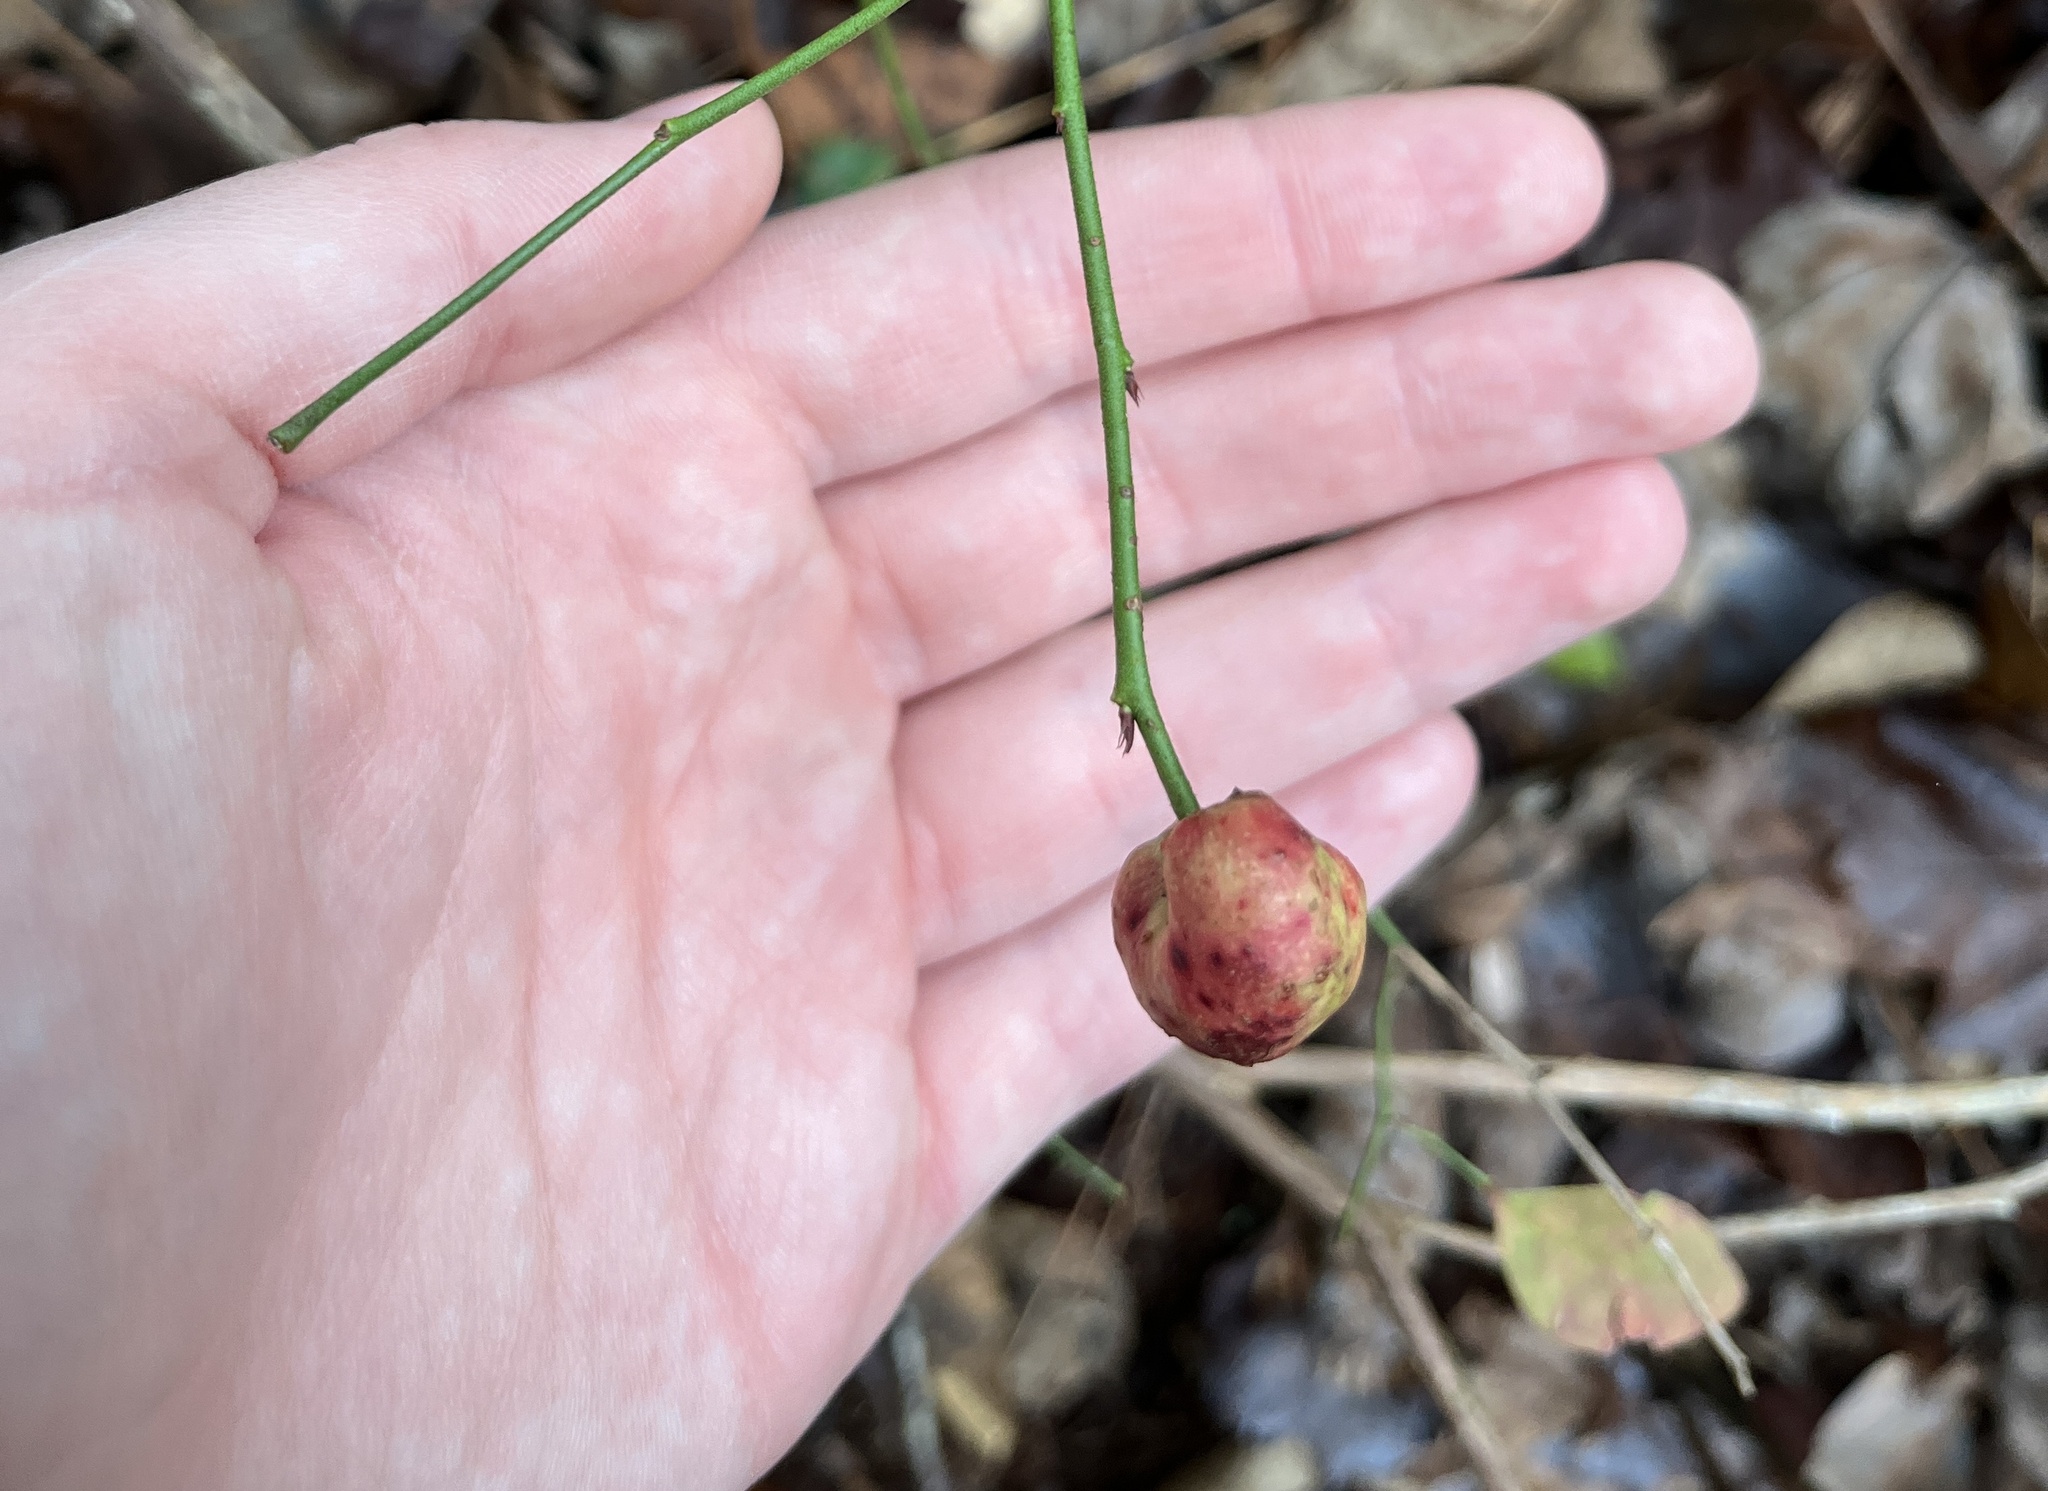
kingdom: Animalia
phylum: Arthropoda
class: Insecta
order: Hymenoptera
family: Pteromalidae
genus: Hemadas
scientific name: Hemadas nubilipennis
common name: Blueberry stem gall wasp
